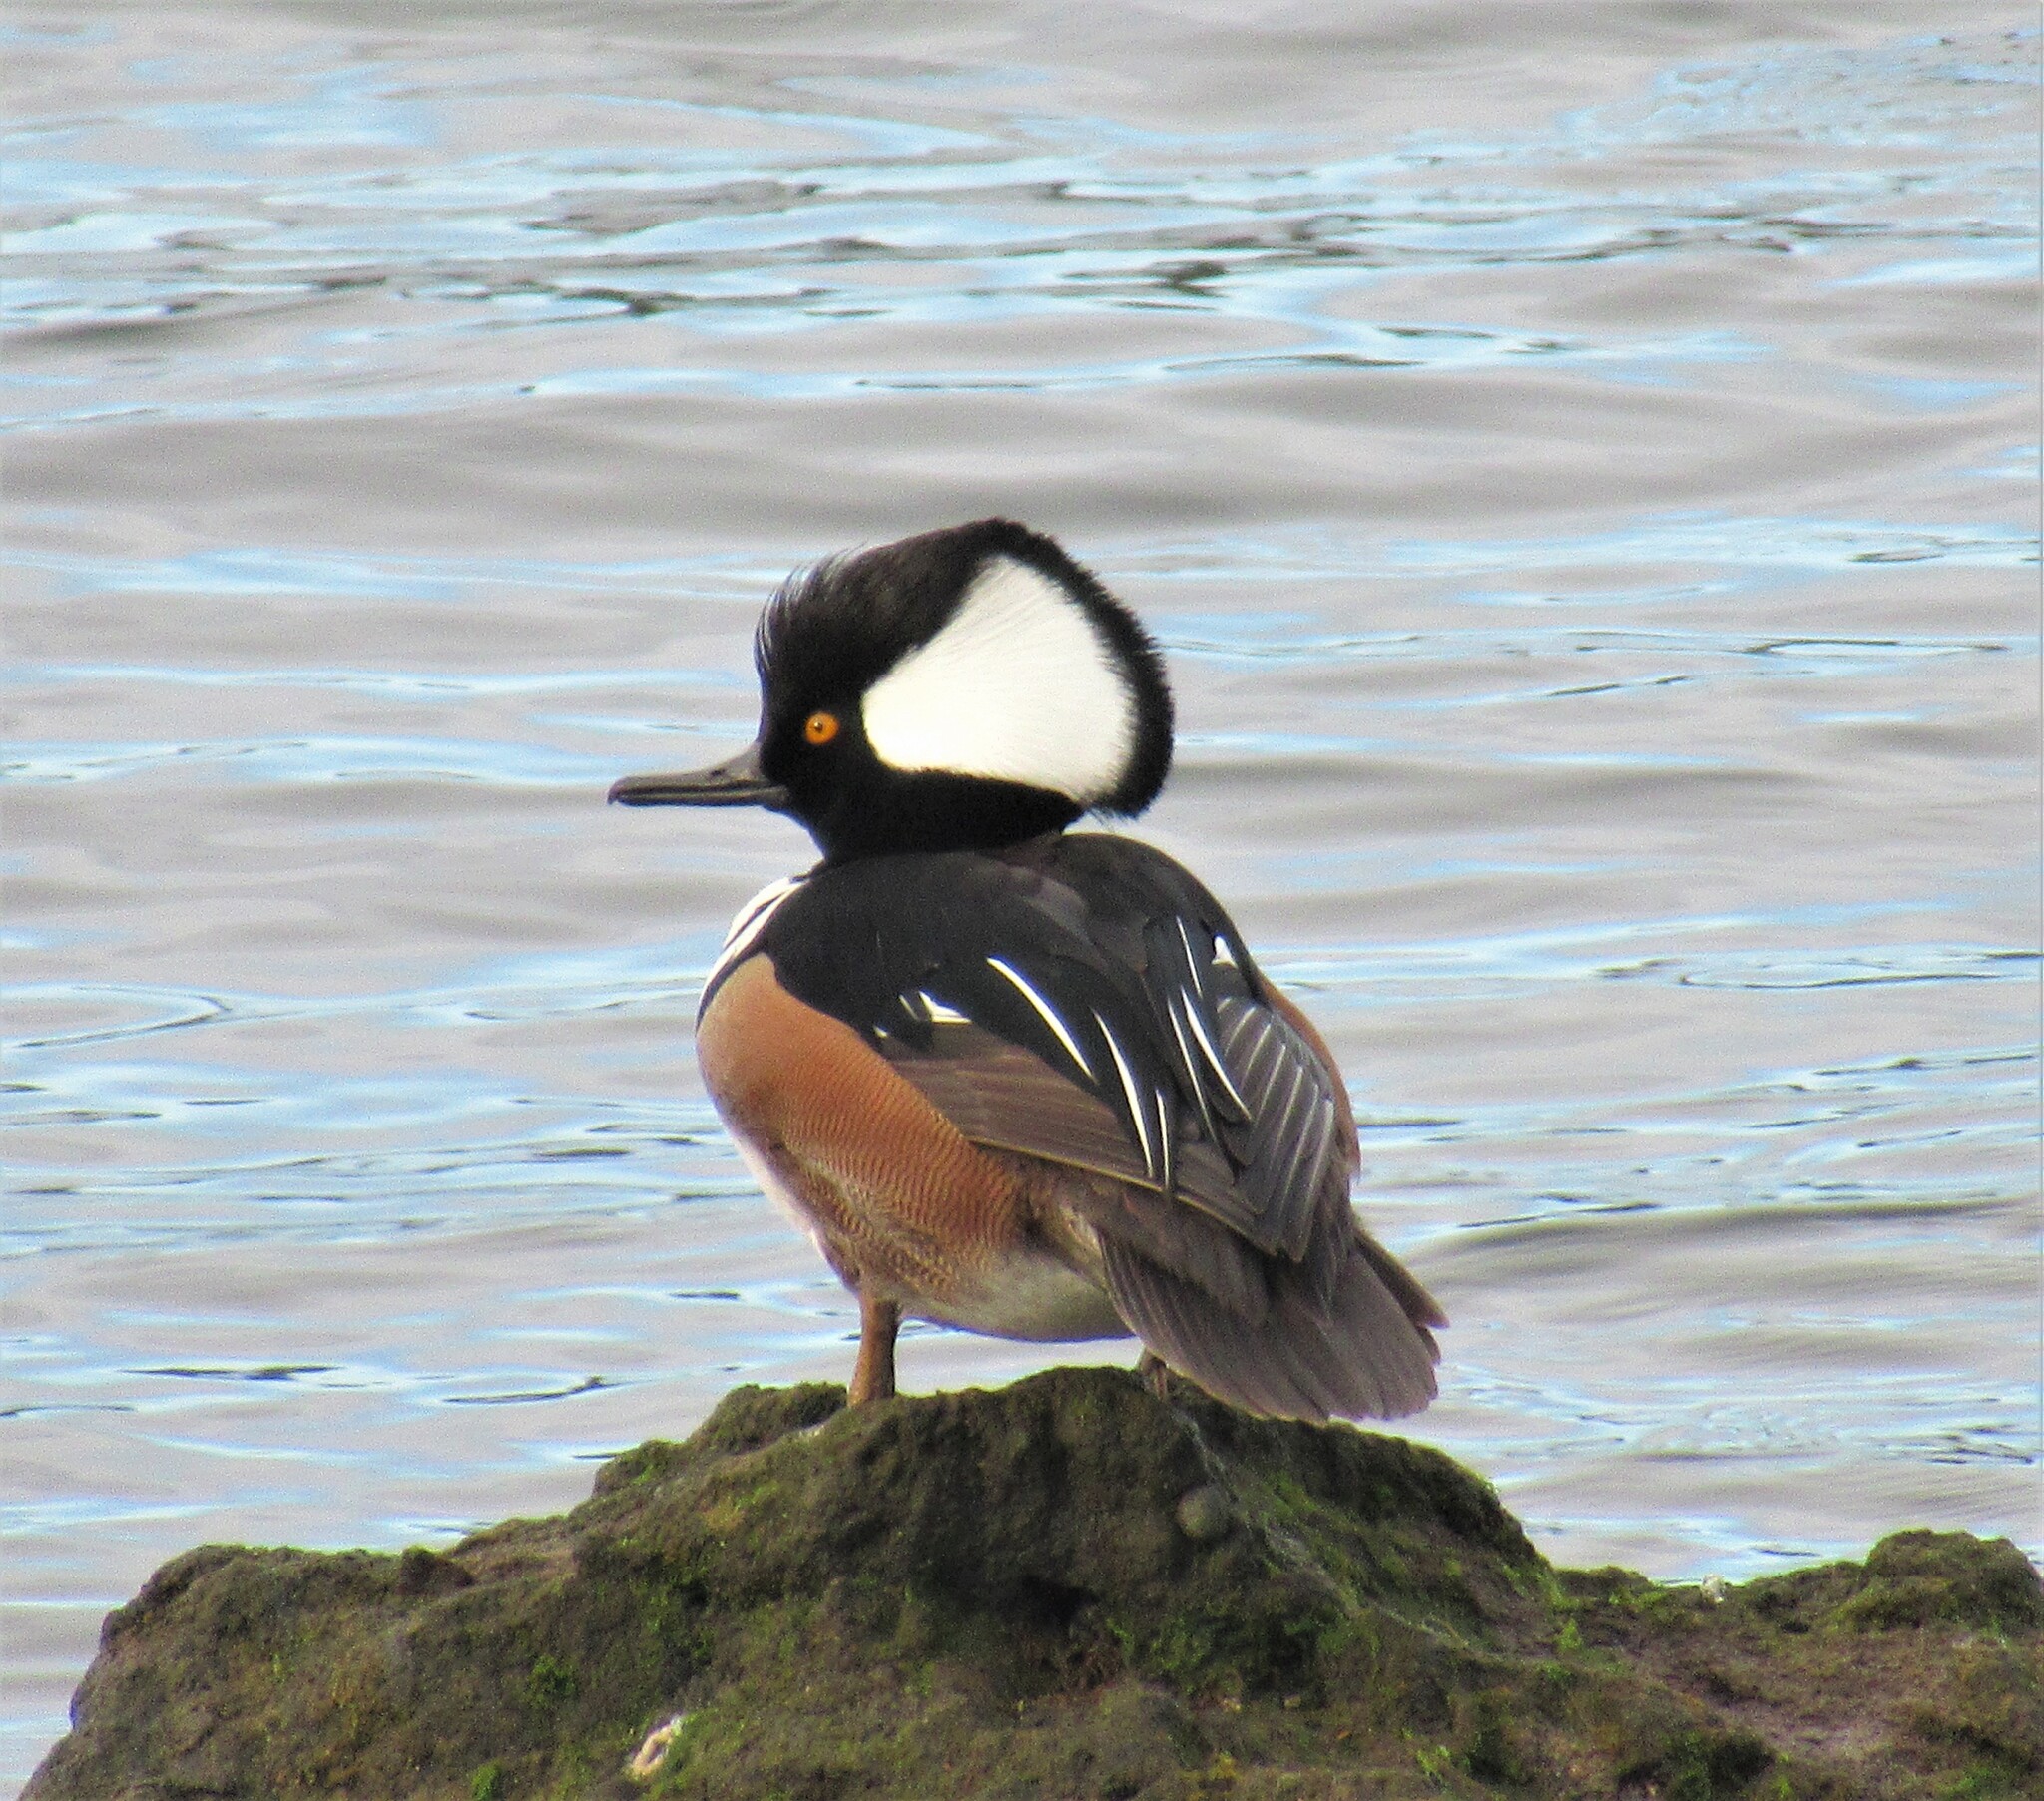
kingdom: Animalia
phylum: Chordata
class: Aves
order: Anseriformes
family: Anatidae
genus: Lophodytes
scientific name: Lophodytes cucullatus
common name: Hooded merganser
